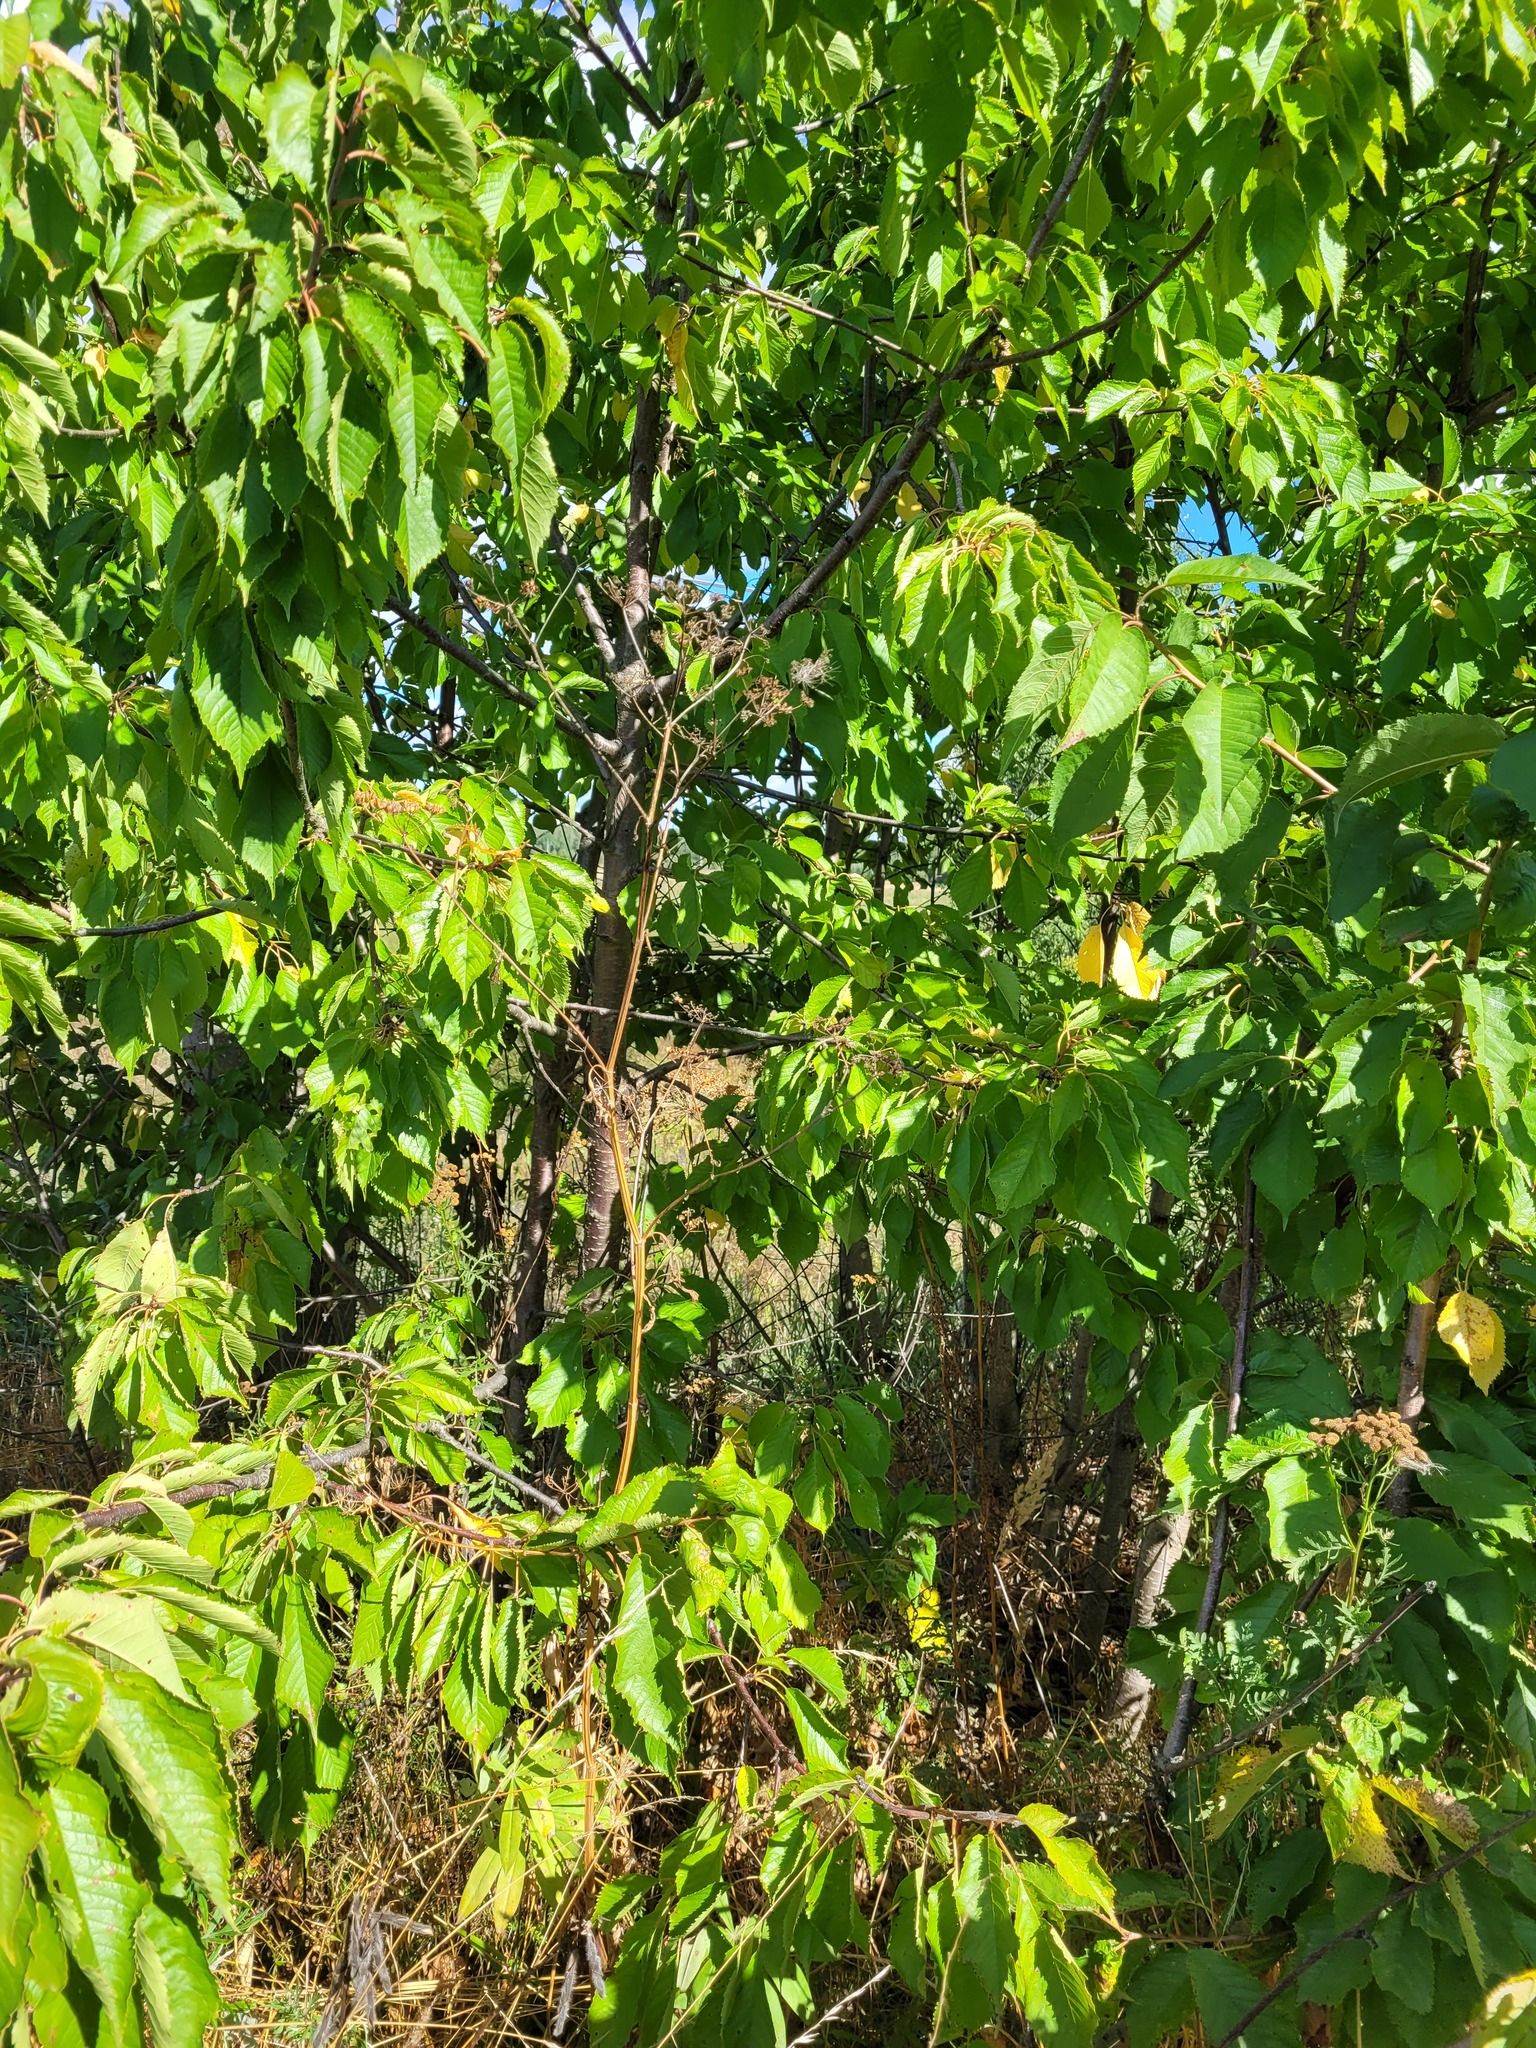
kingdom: Plantae
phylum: Tracheophyta
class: Magnoliopsida
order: Rosales
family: Rosaceae
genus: Prunus
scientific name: Prunus avium
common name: Sweet cherry
